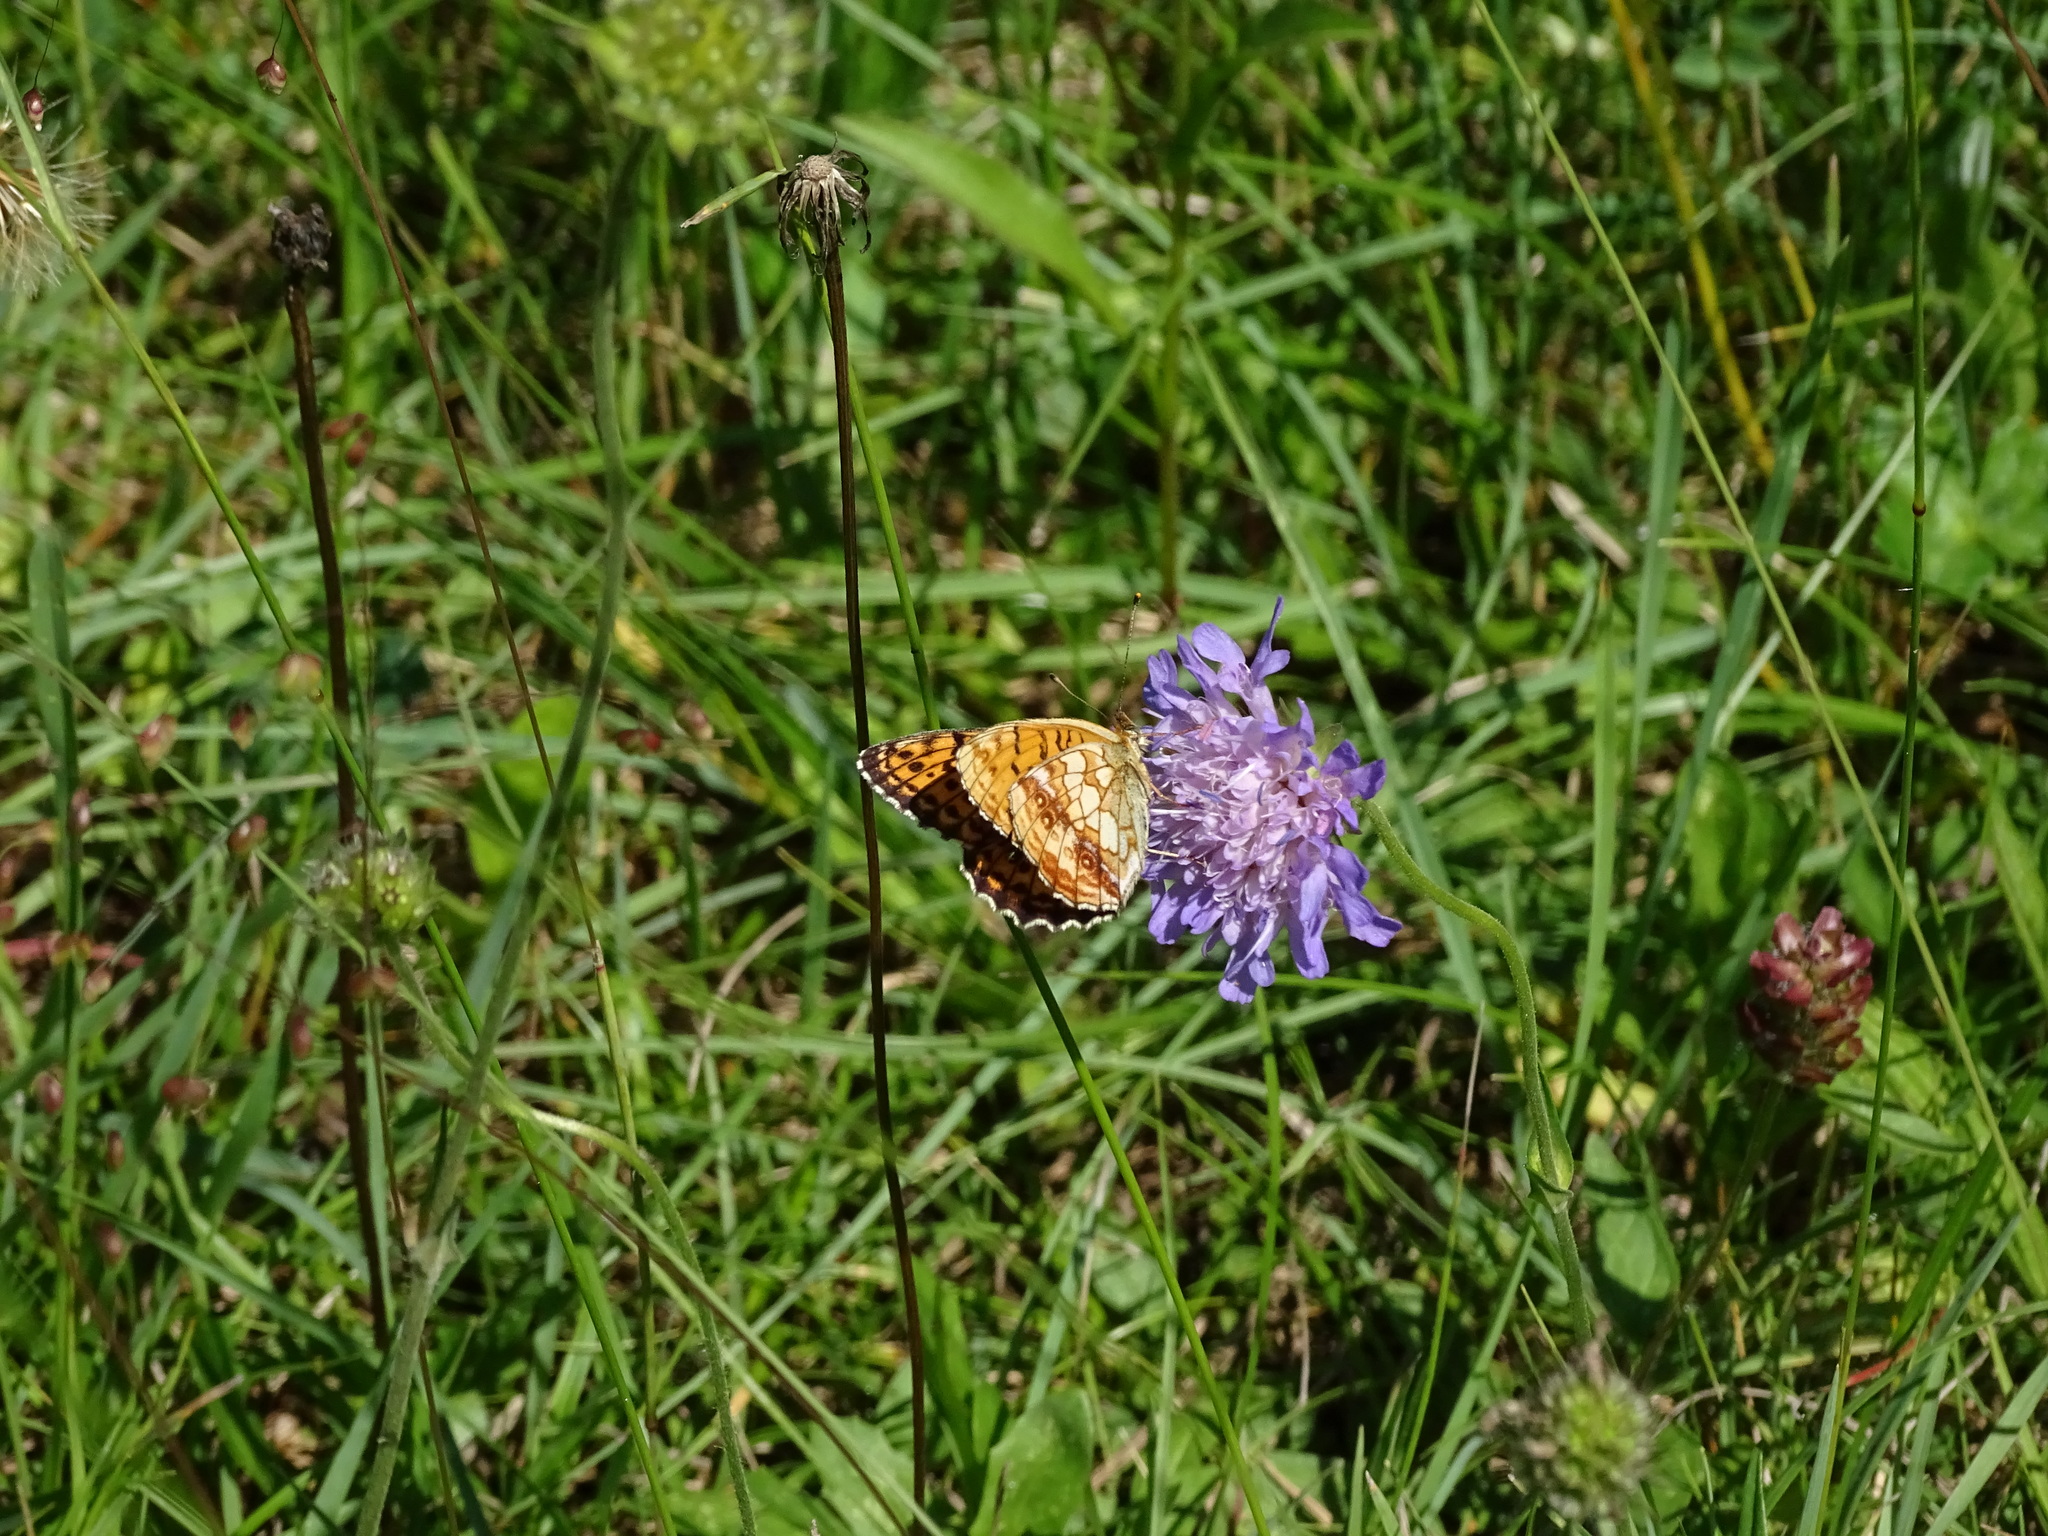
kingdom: Animalia
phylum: Arthropoda
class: Insecta
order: Lepidoptera
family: Nymphalidae
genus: Brenthis
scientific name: Brenthis ino
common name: Lesser marbled fritillary
